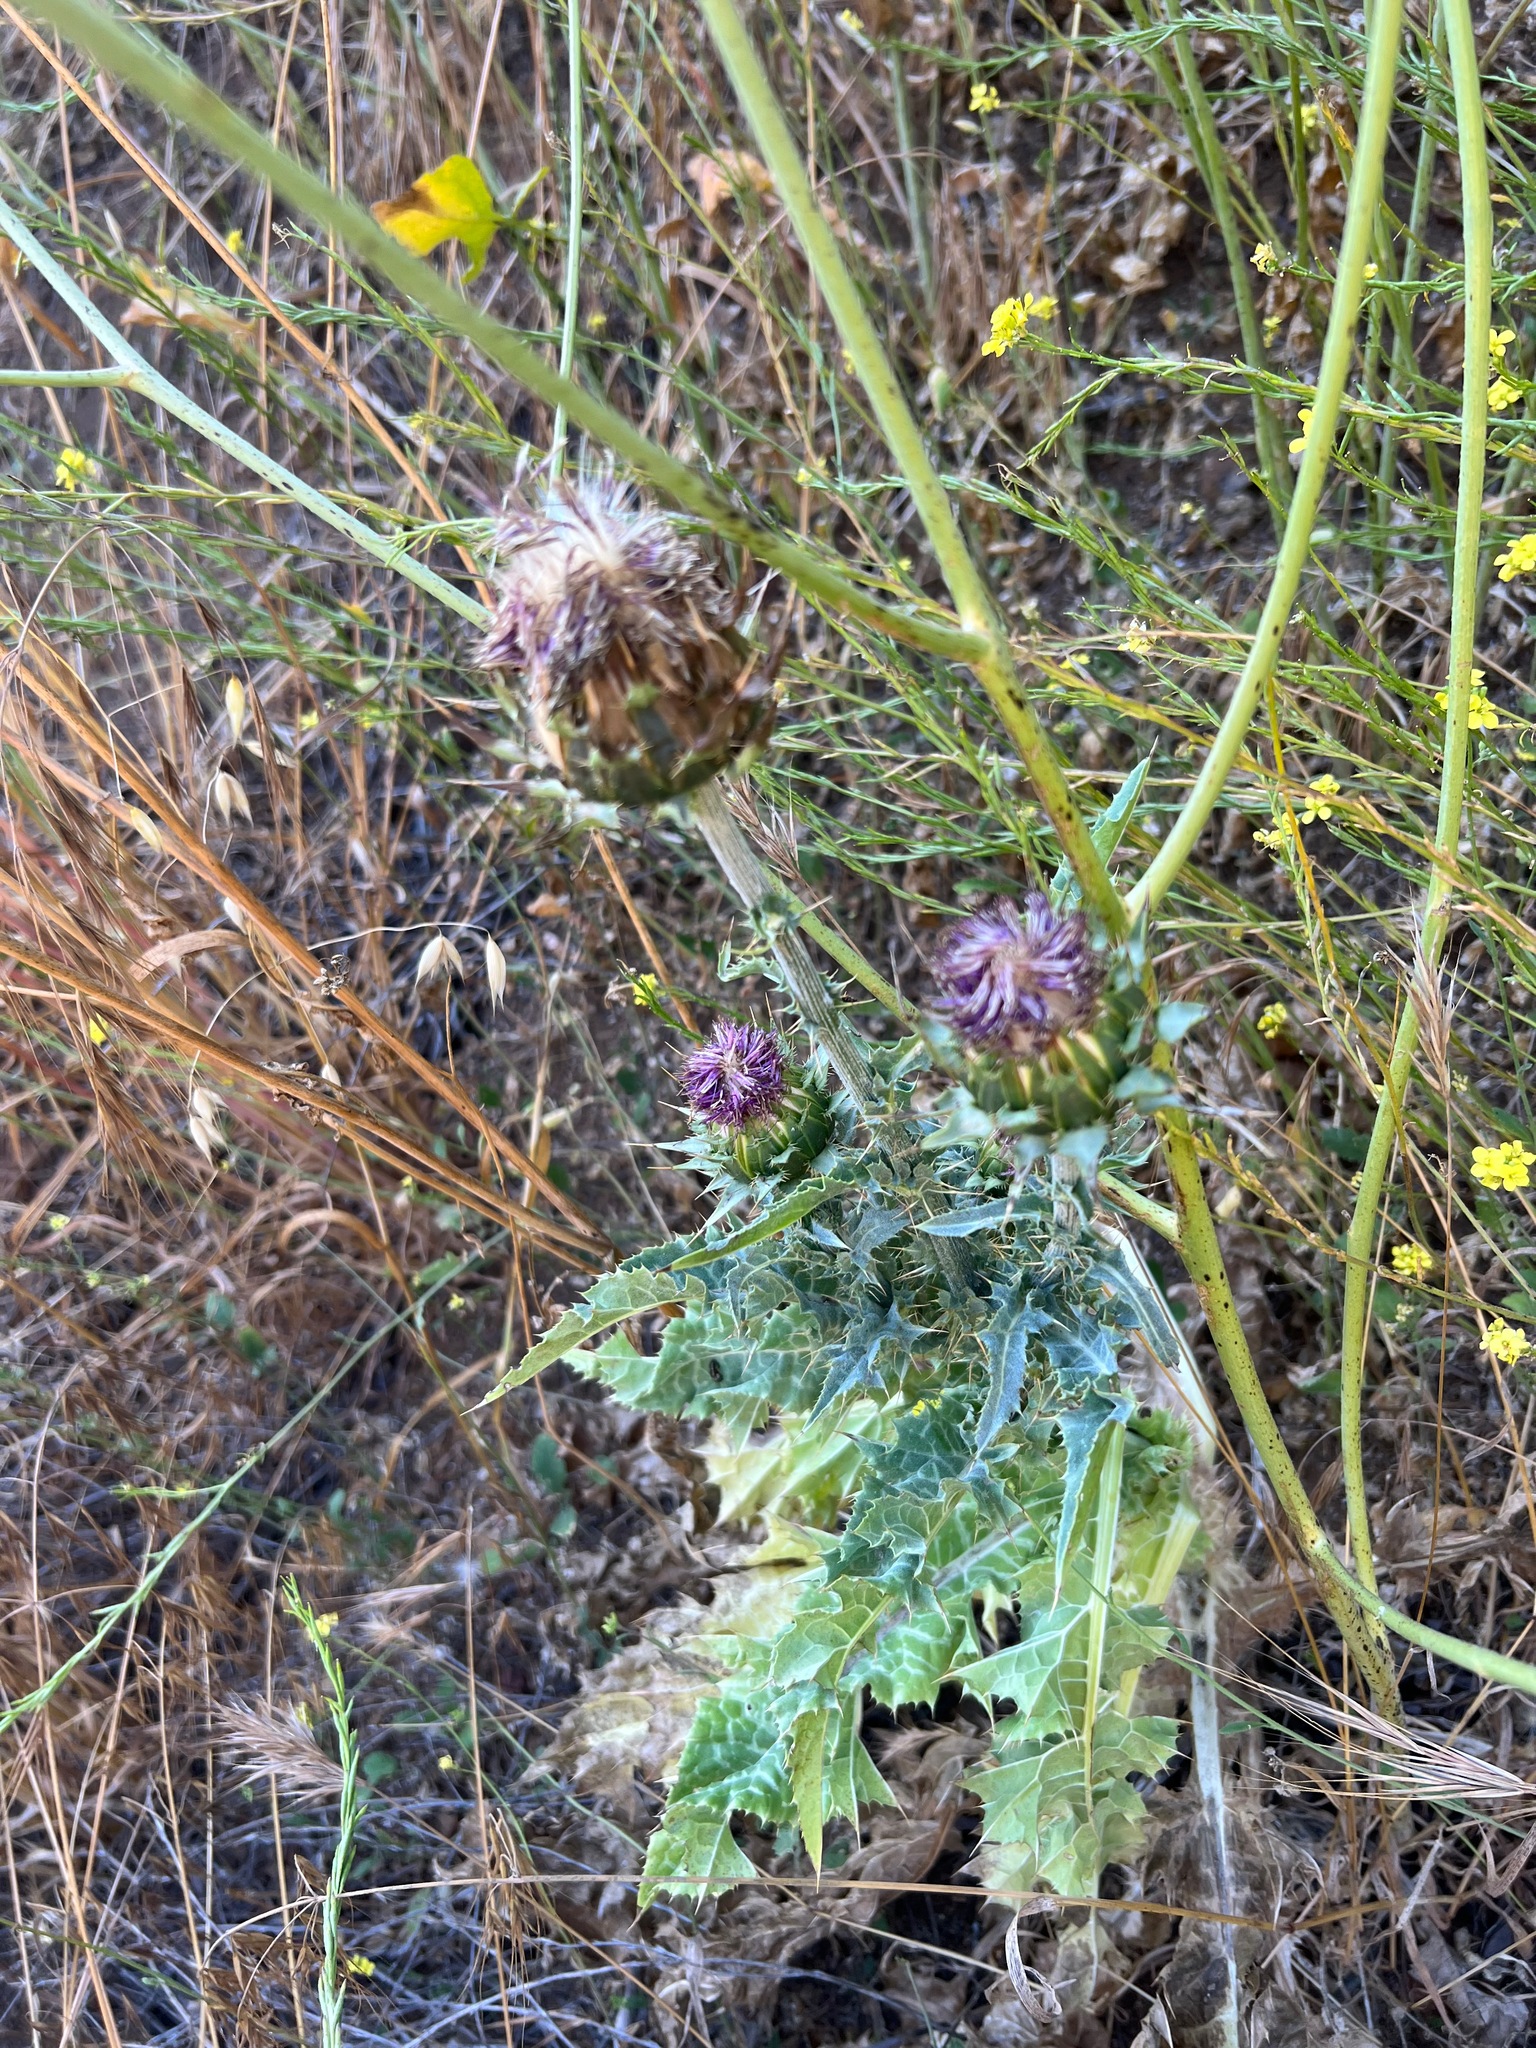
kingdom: Plantae
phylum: Tracheophyta
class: Magnoliopsida
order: Asterales
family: Asteraceae
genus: Silybum
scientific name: Silybum marianum
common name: Milk thistle
